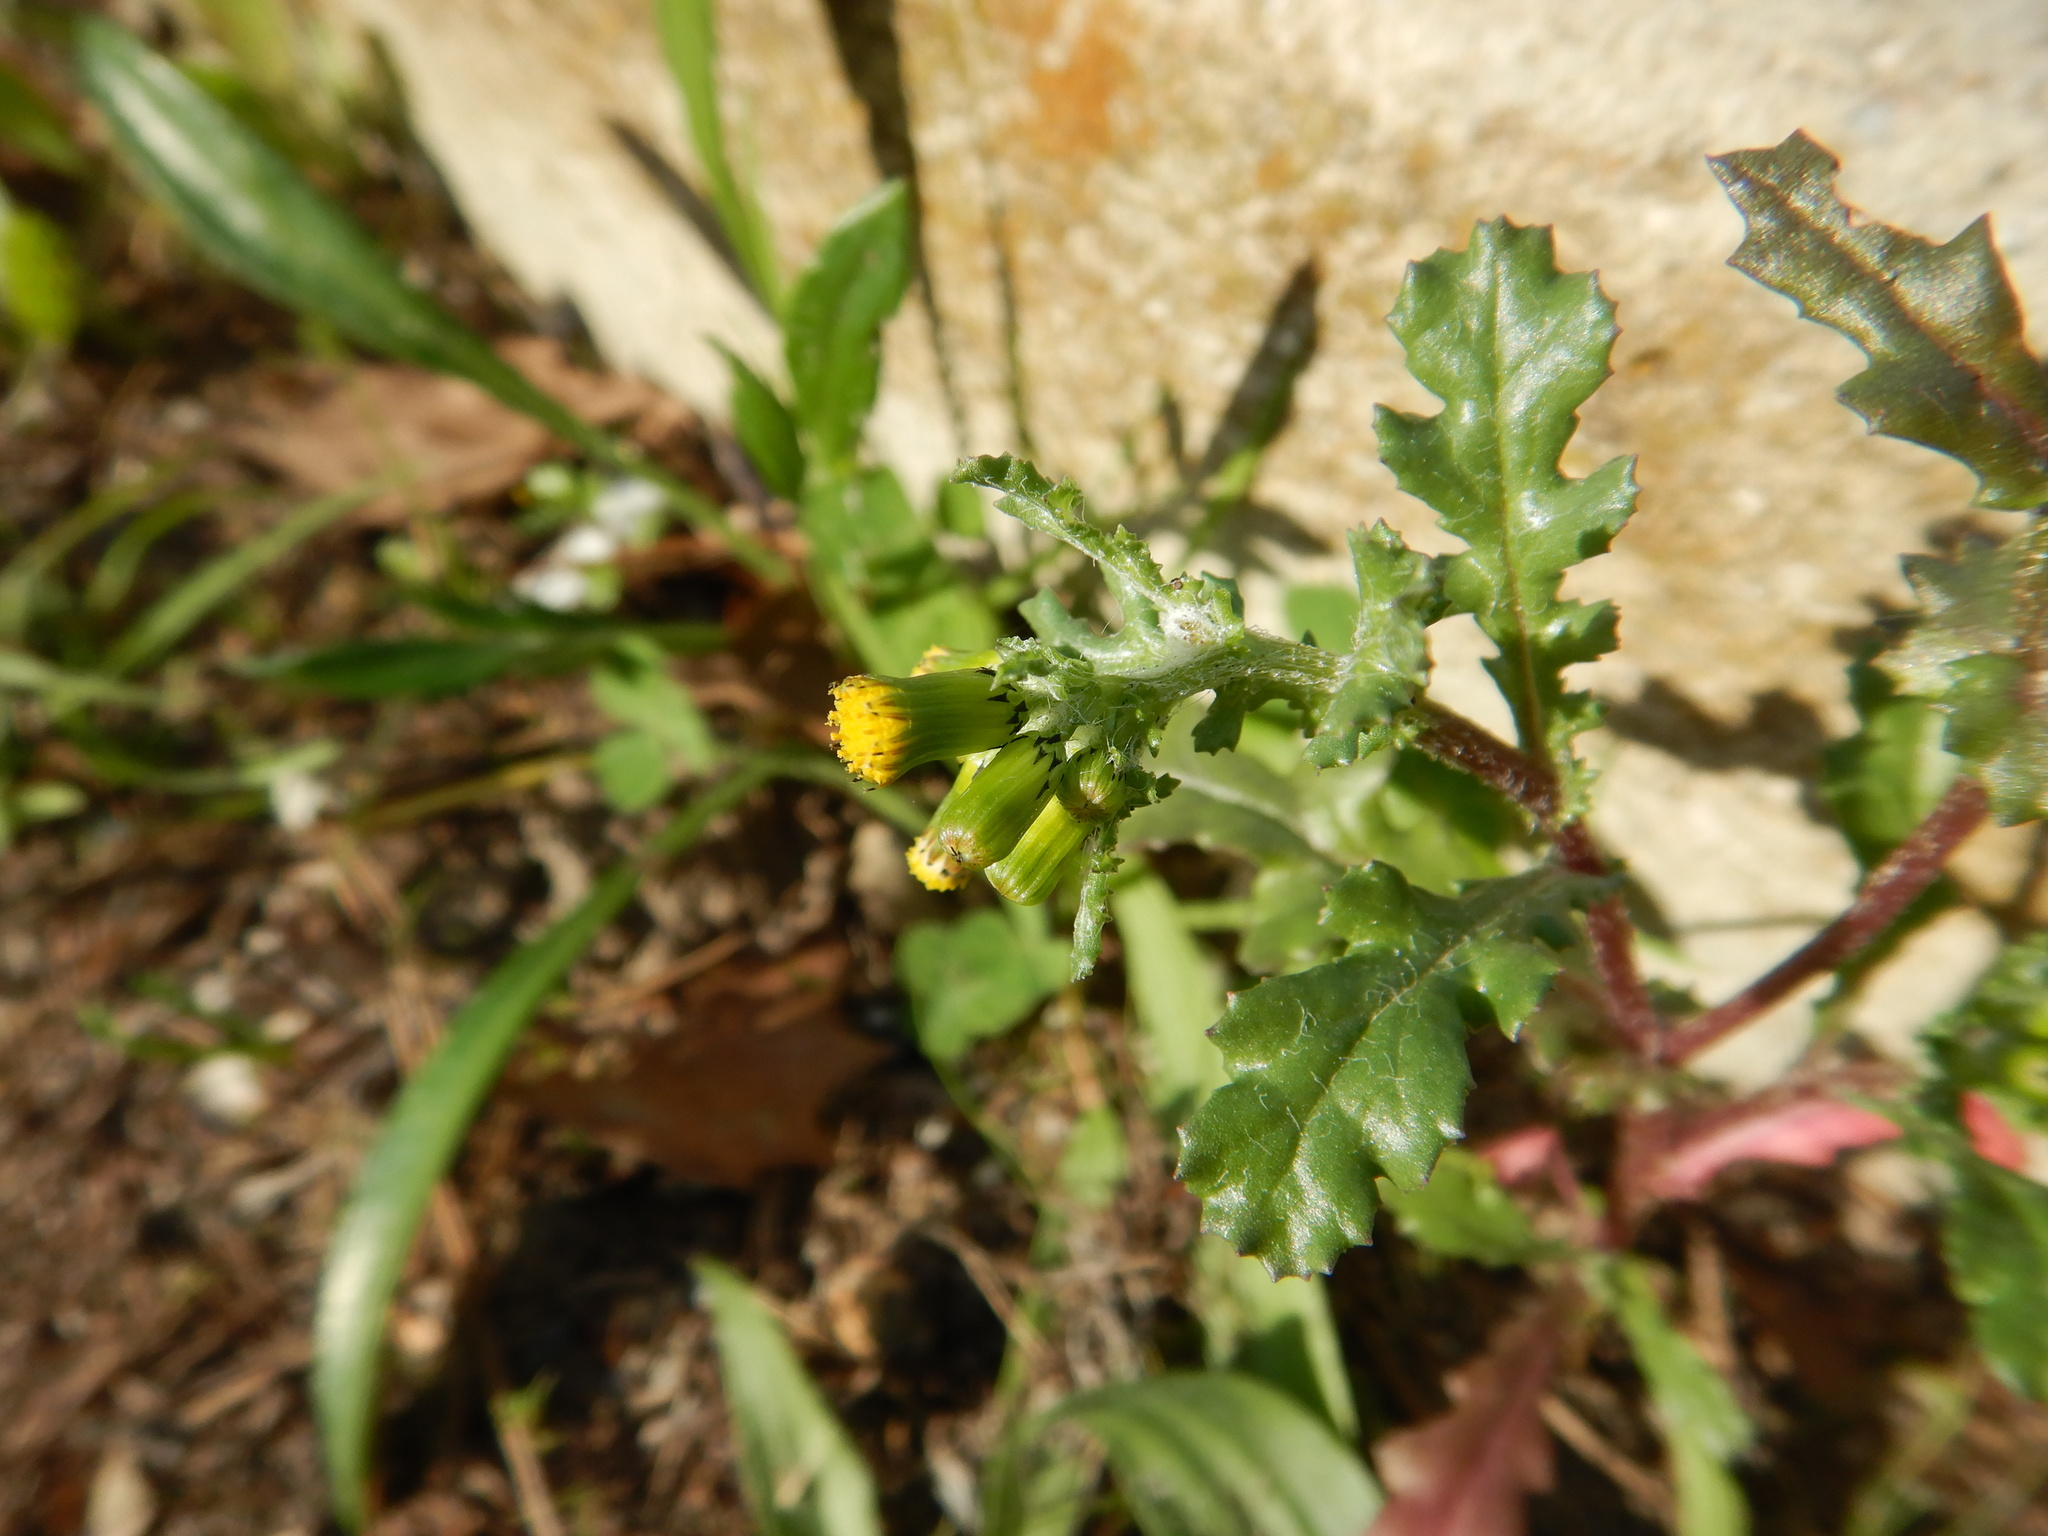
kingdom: Plantae
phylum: Tracheophyta
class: Magnoliopsida
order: Asterales
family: Asteraceae
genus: Senecio
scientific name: Senecio vulgaris
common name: Old-man-in-the-spring
